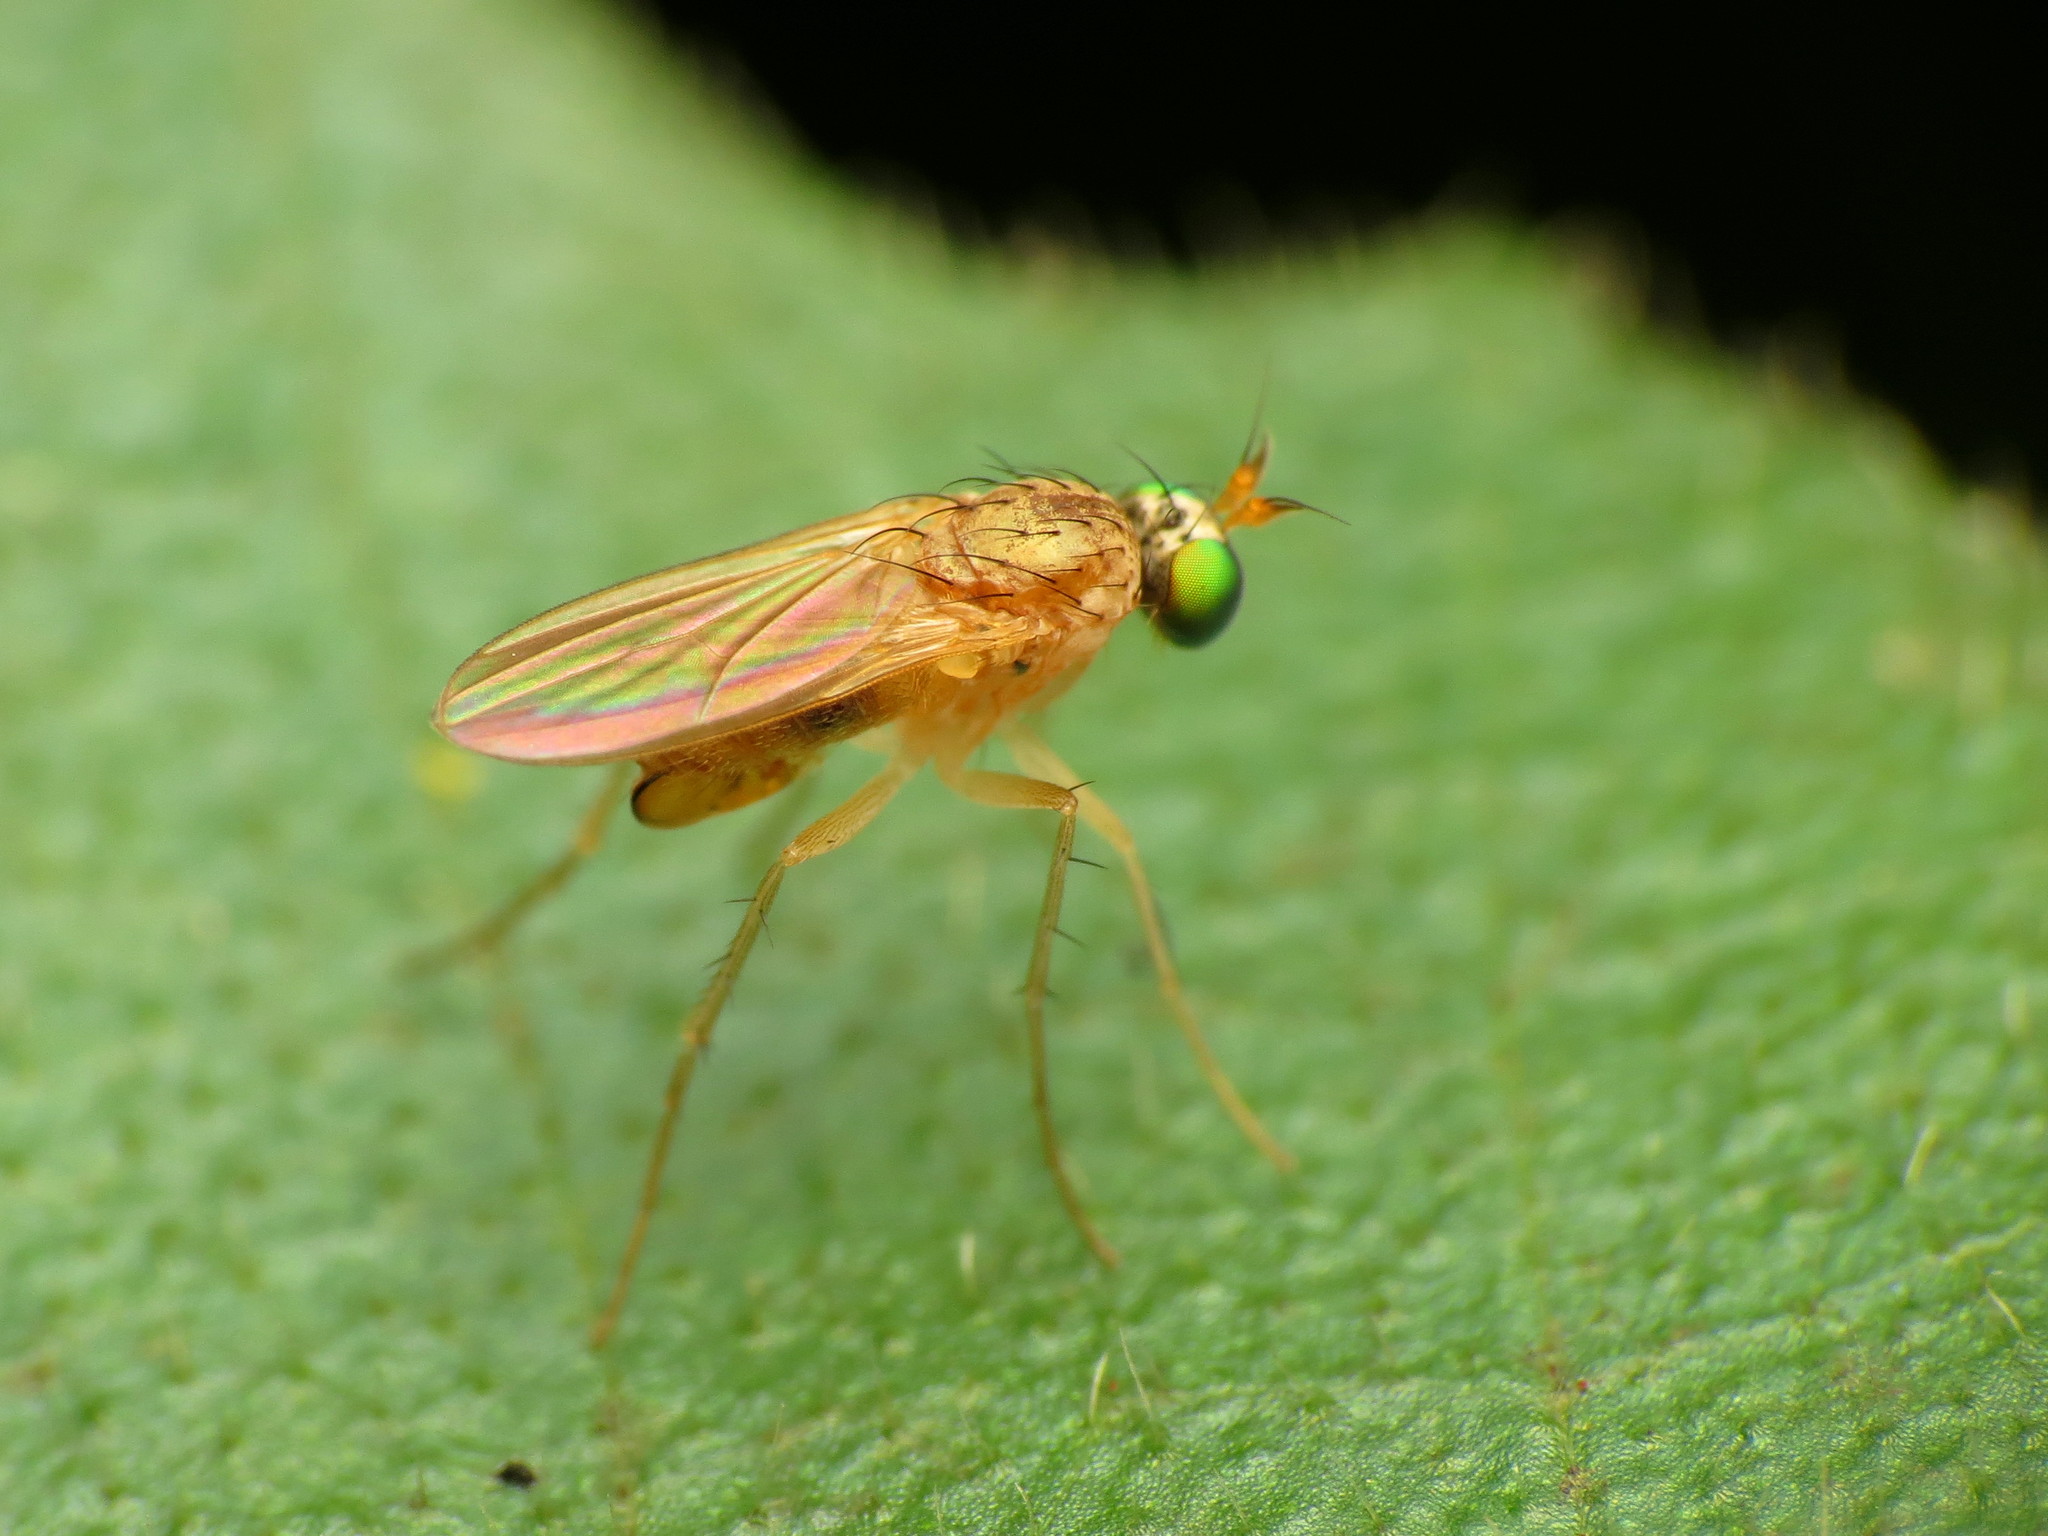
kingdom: Animalia
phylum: Arthropoda
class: Insecta
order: Diptera
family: Dolichopodidae
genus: Gymnopternus
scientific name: Gymnopternus flavus
